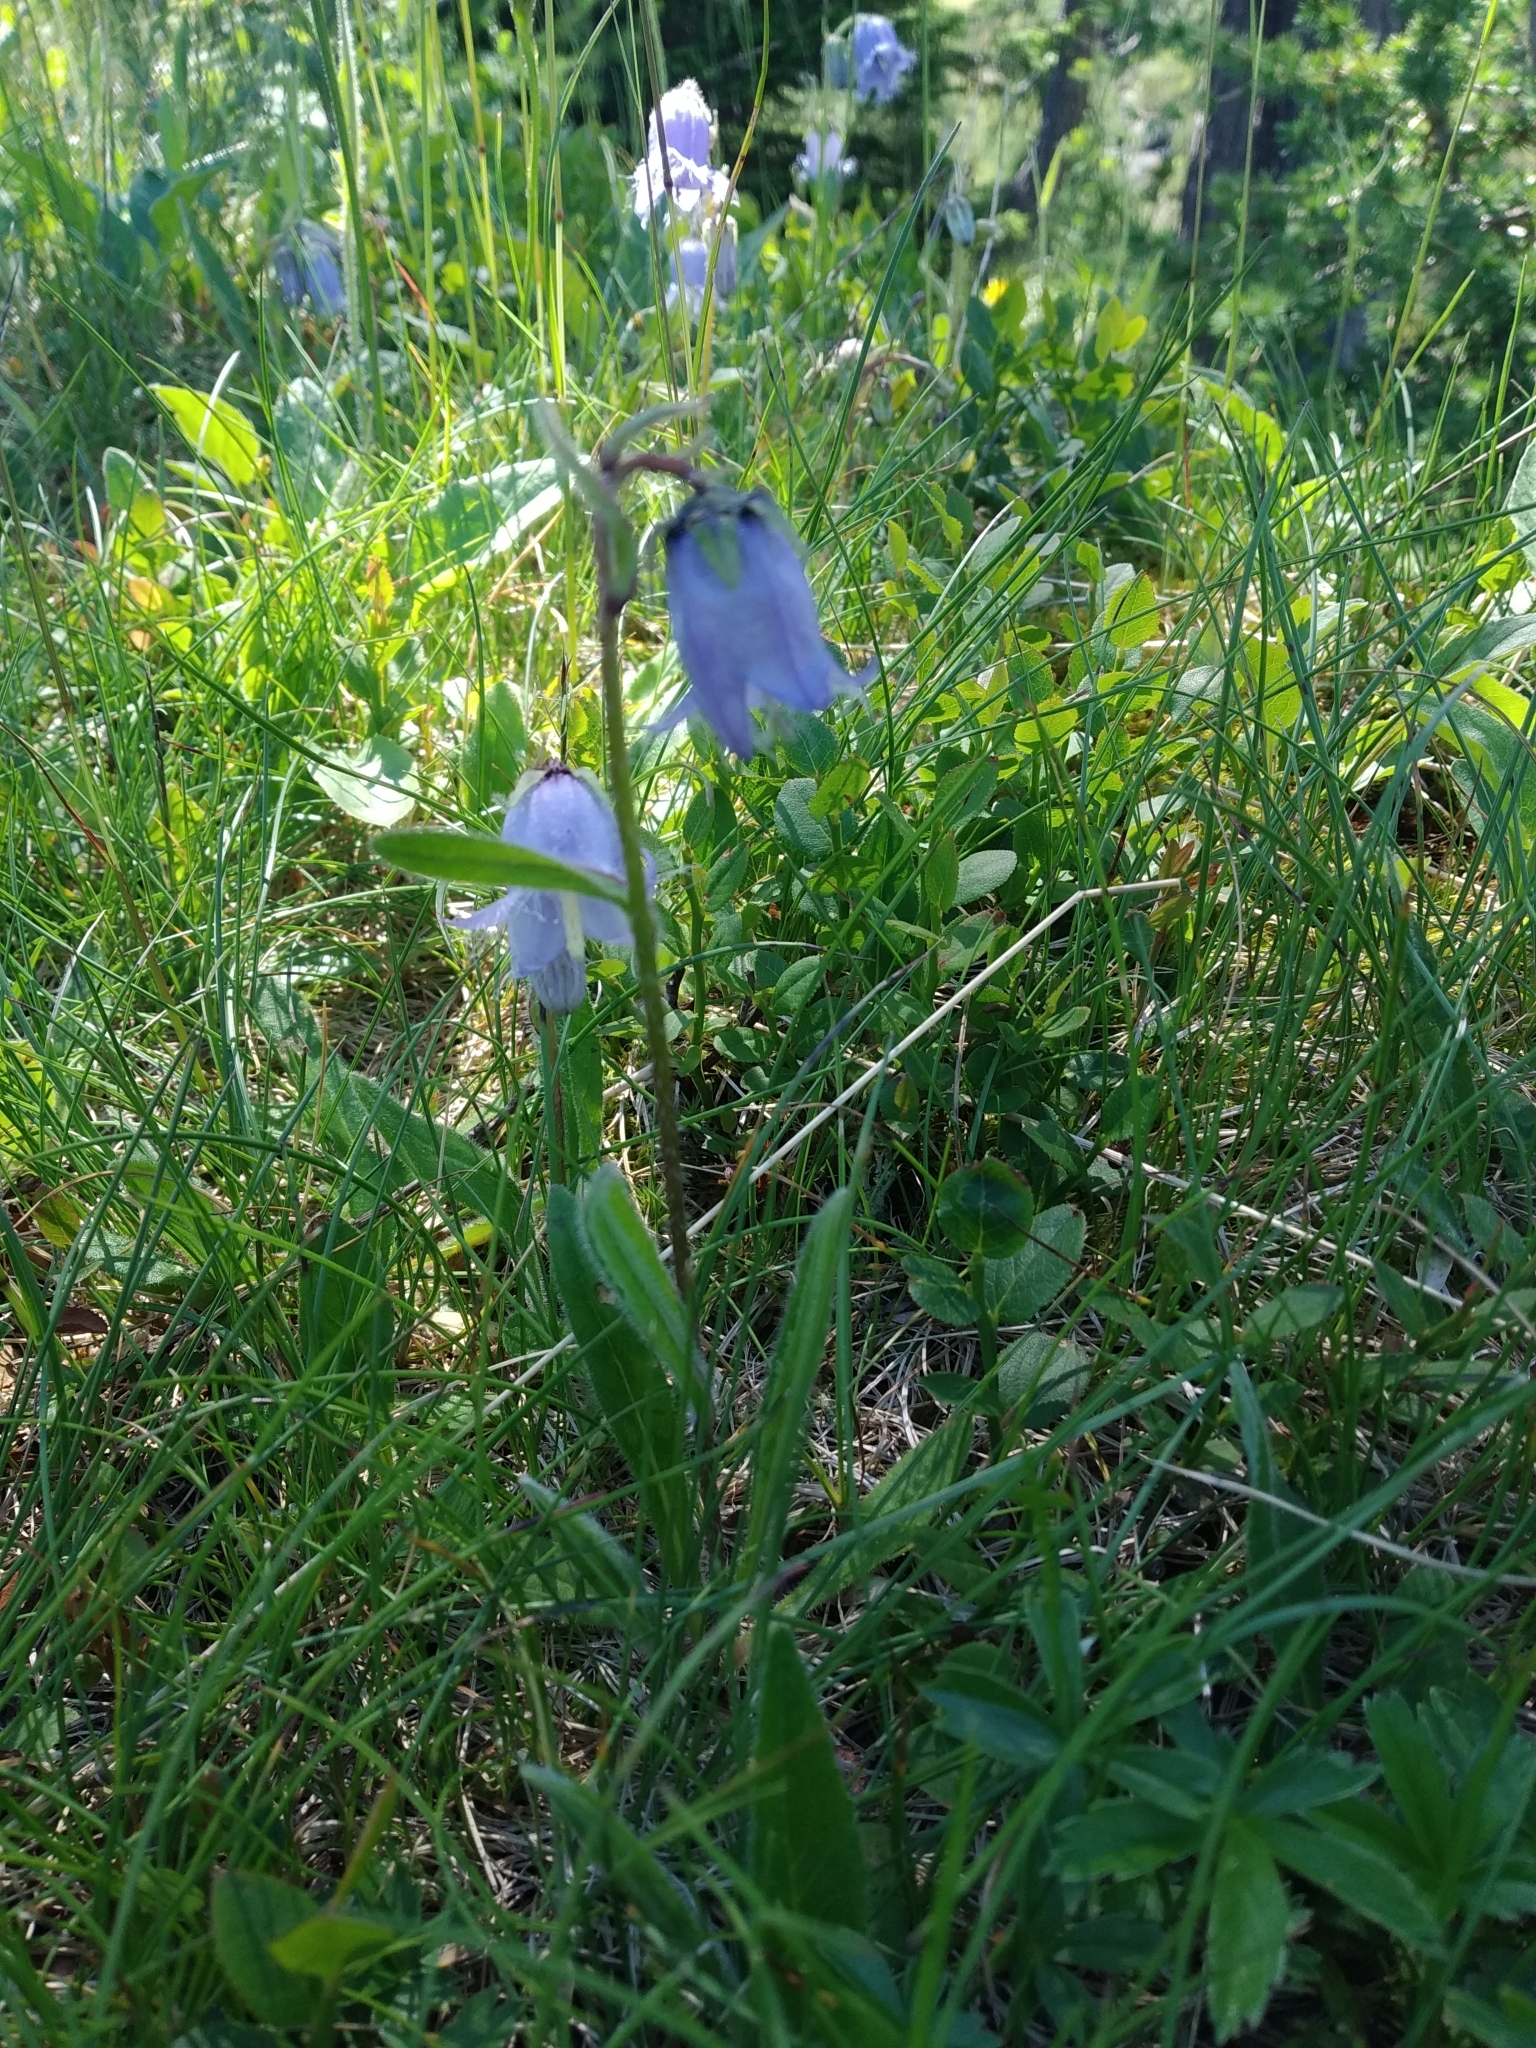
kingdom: Plantae
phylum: Tracheophyta
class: Magnoliopsida
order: Asterales
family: Campanulaceae
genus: Campanula
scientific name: Campanula barbata
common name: Bearded bellflower
